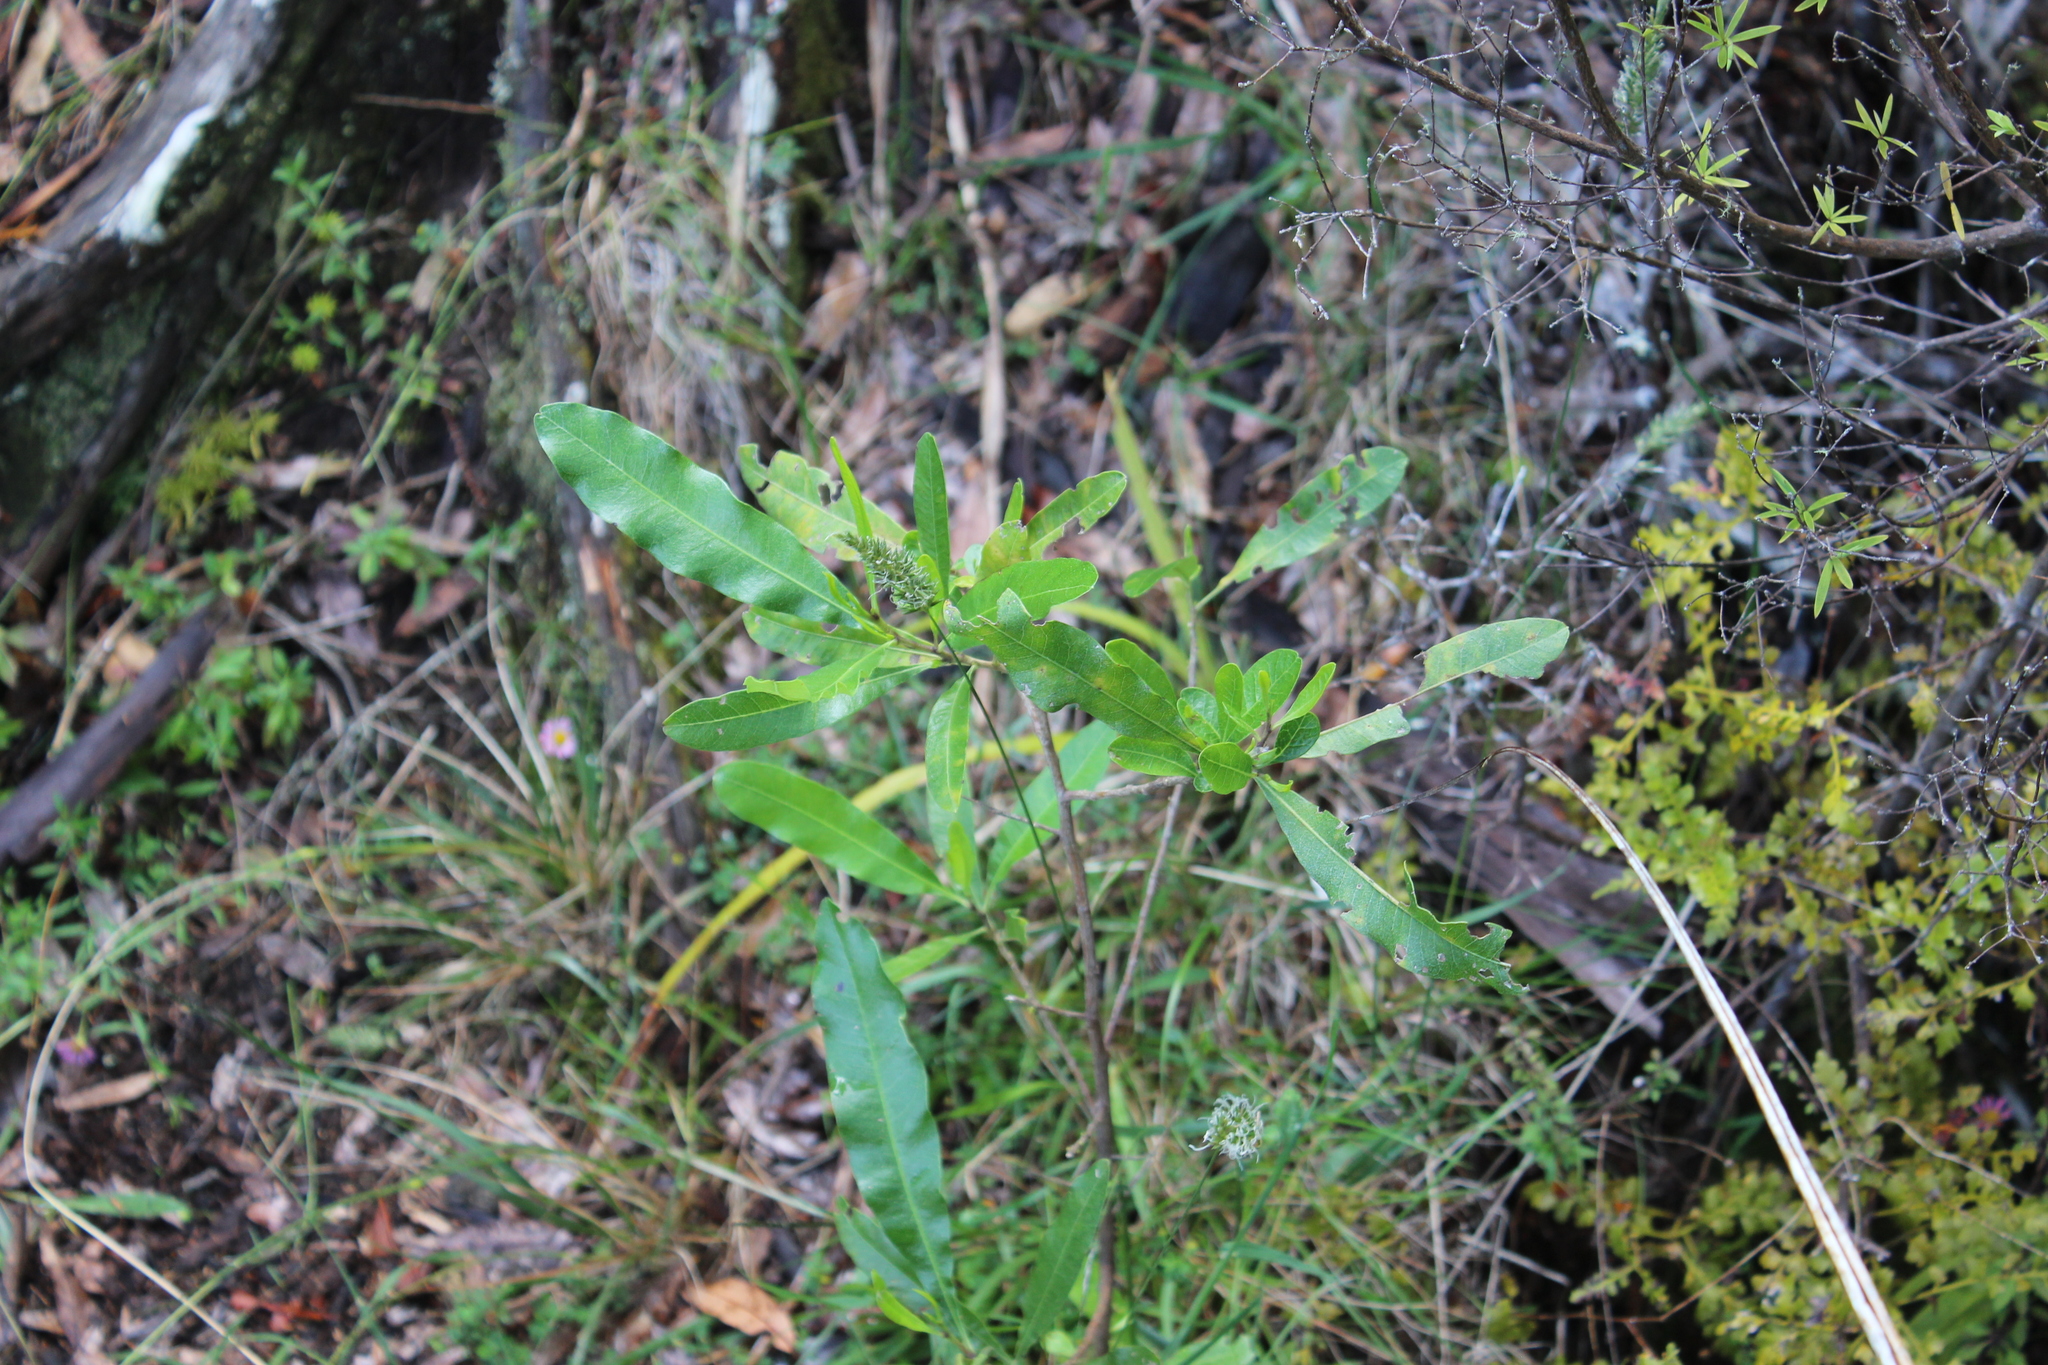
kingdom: Plantae
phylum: Tracheophyta
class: Magnoliopsida
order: Sapindales
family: Sapindaceae
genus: Dodonaea
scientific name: Dodonaea viscosa
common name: Hopbush
